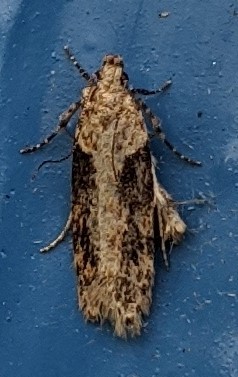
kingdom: Animalia
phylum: Arthropoda
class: Insecta
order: Lepidoptera
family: Gelechiidae
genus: Chionodes
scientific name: Chionodes mediofuscella
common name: Black-smudged chionodes moth
